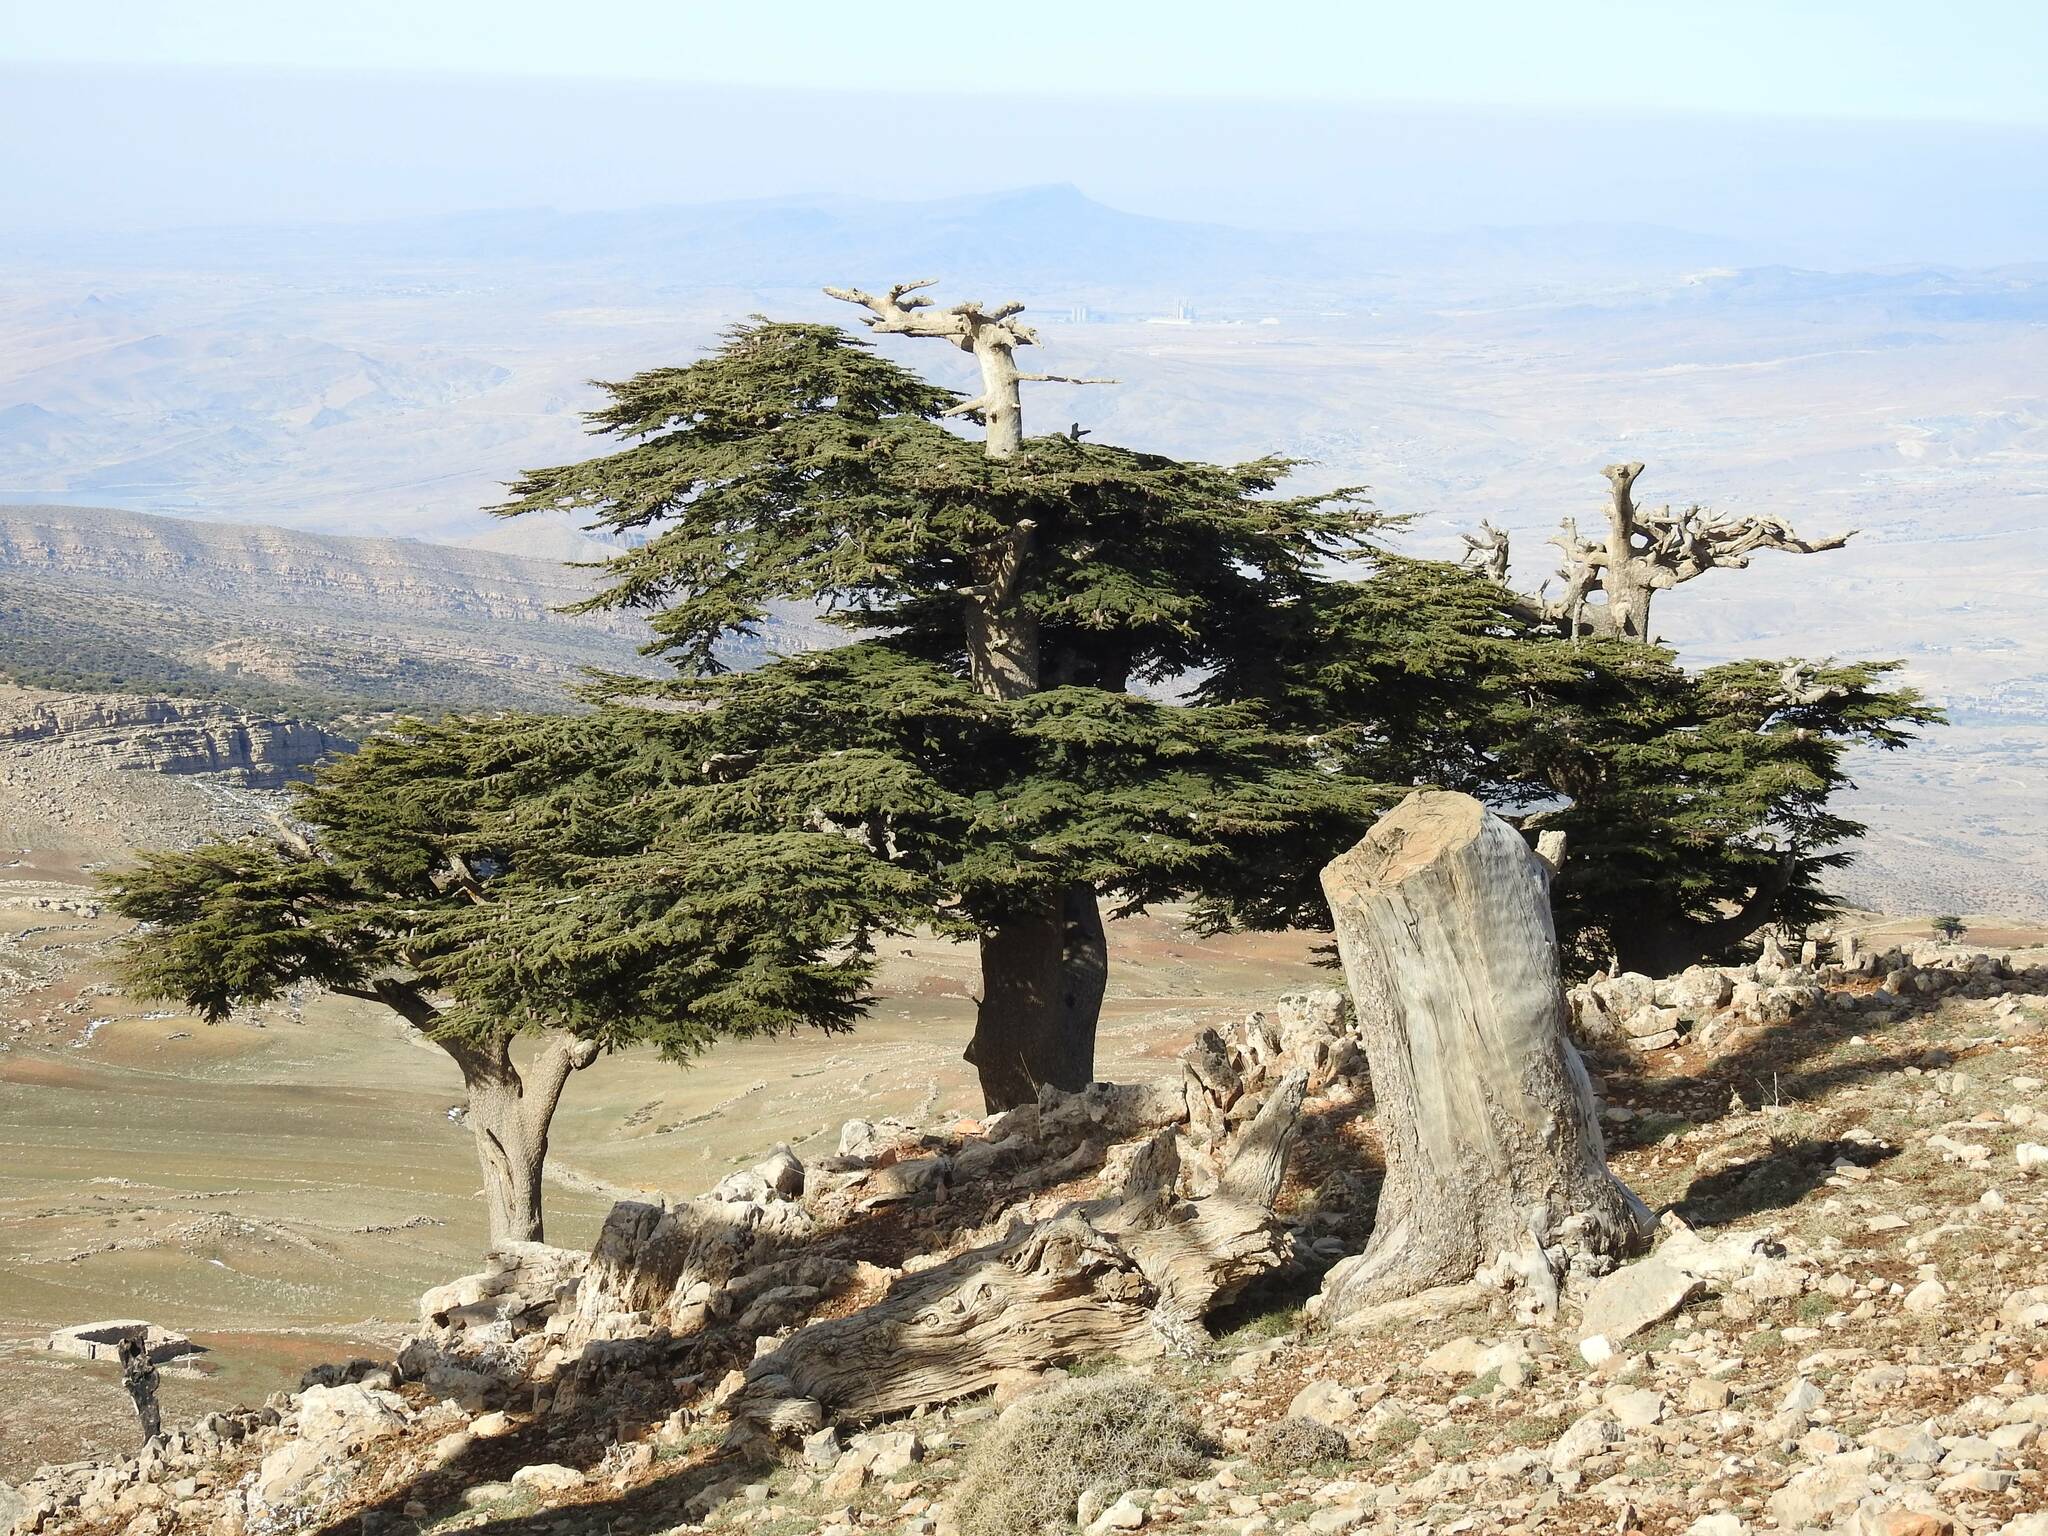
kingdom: Plantae
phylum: Tracheophyta
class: Pinopsida
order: Pinales
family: Pinaceae
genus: Cedrus
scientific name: Cedrus atlantica
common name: Atlas cedar
